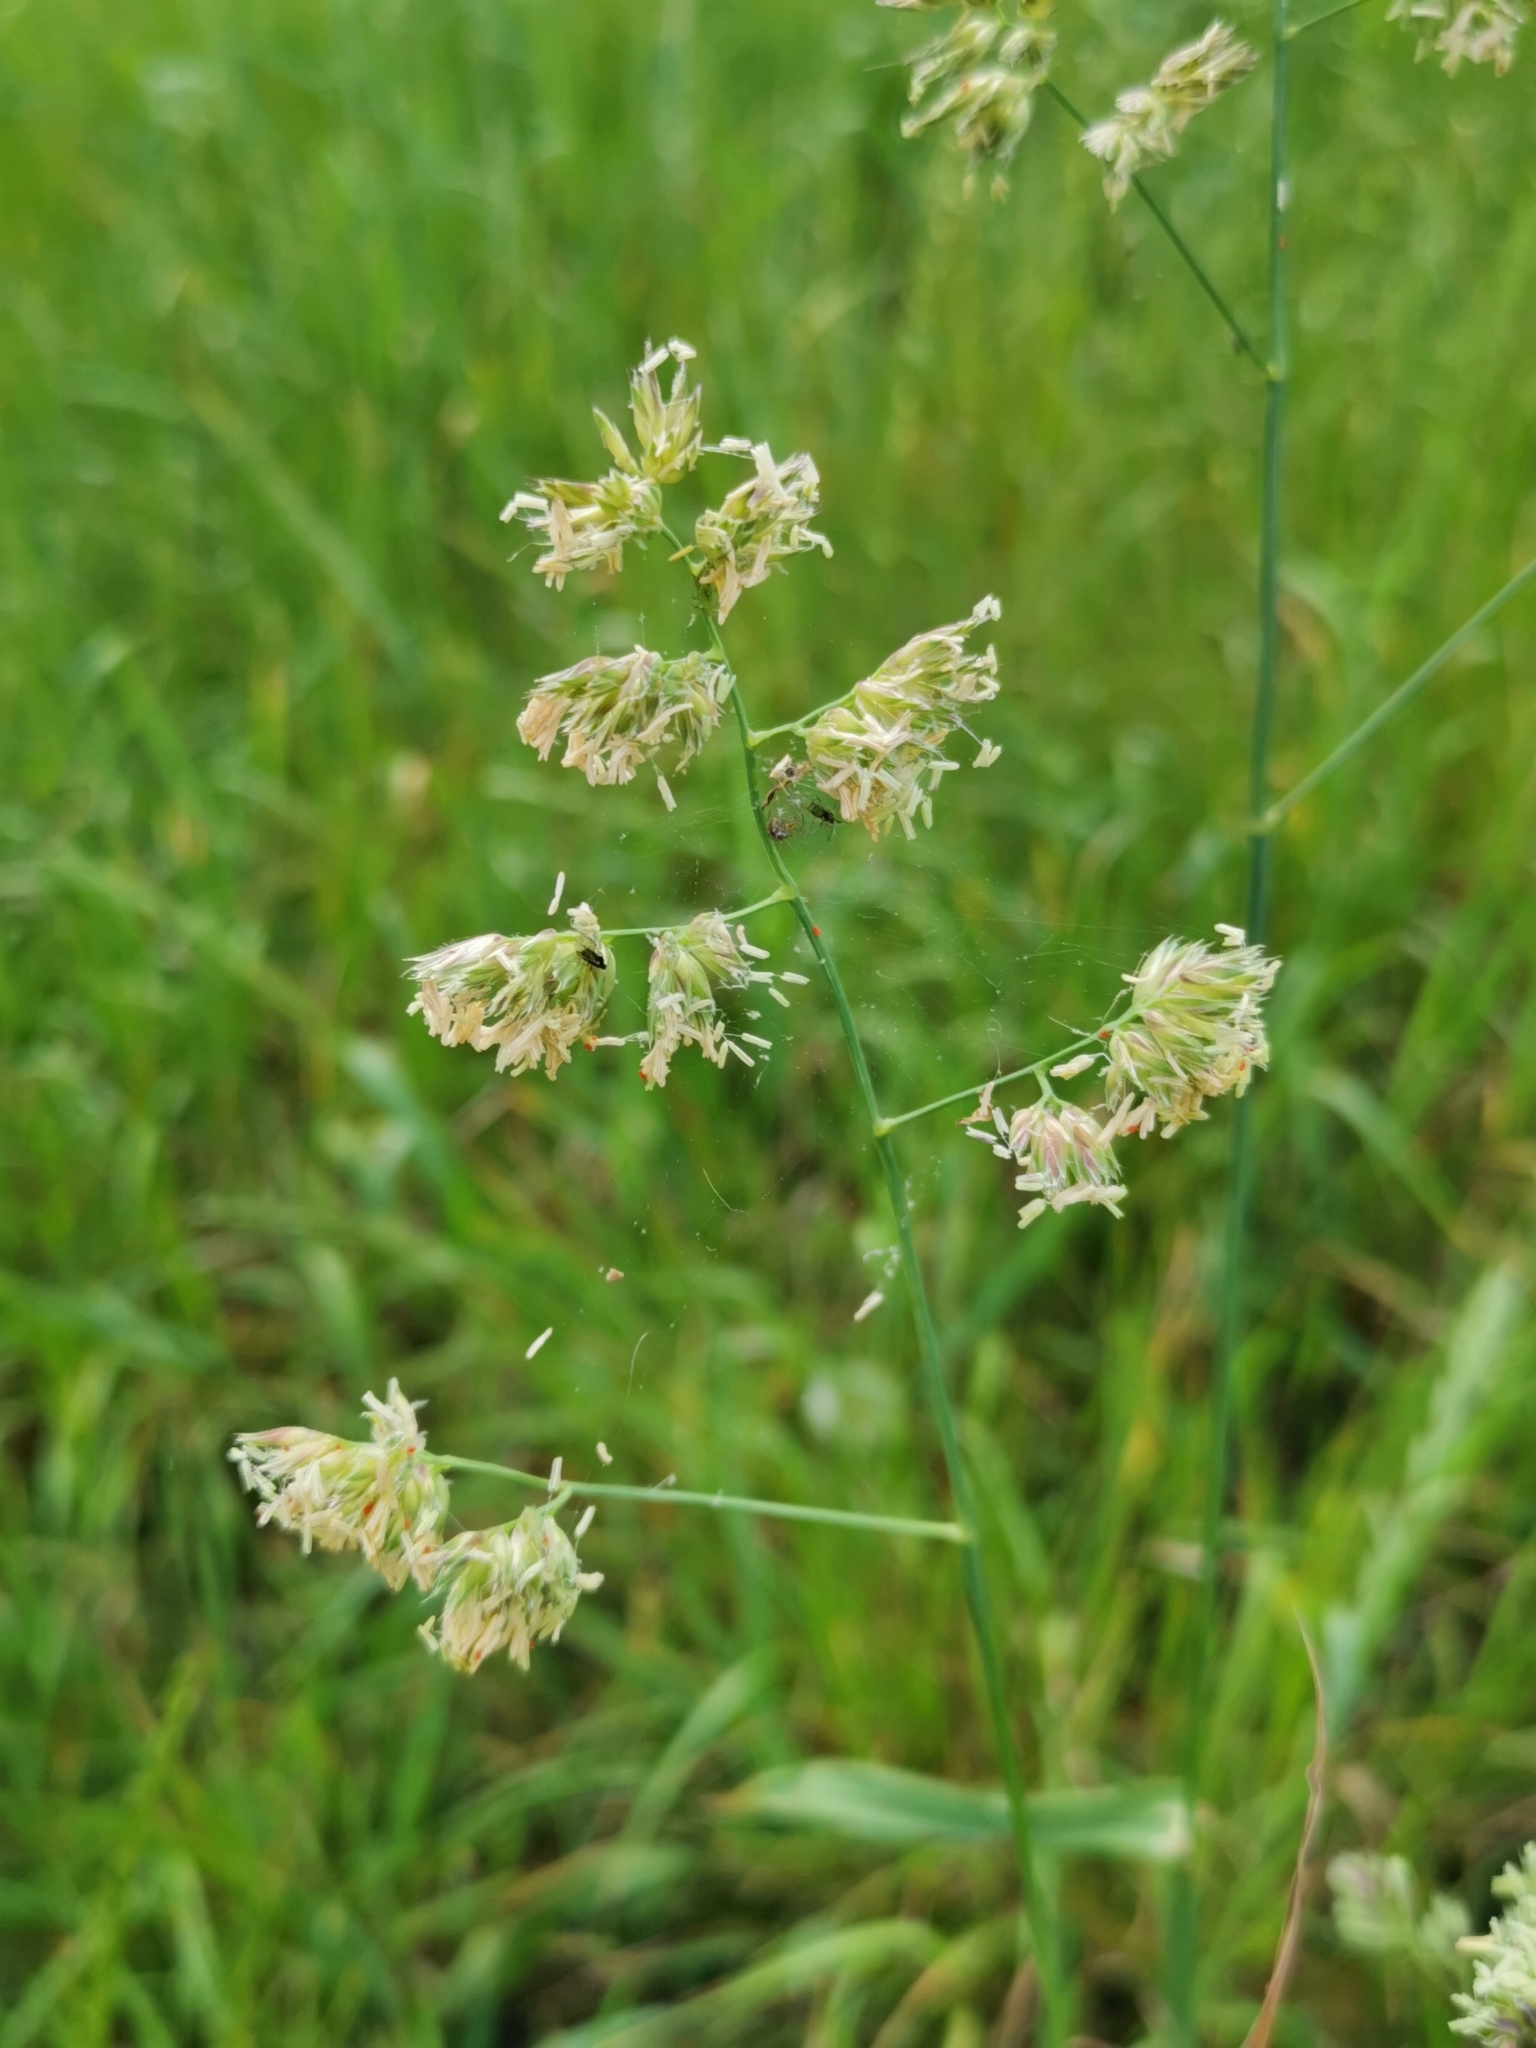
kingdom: Plantae
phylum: Tracheophyta
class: Liliopsida
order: Poales
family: Poaceae
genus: Dactylis
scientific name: Dactylis glomerata
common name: Orchardgrass
